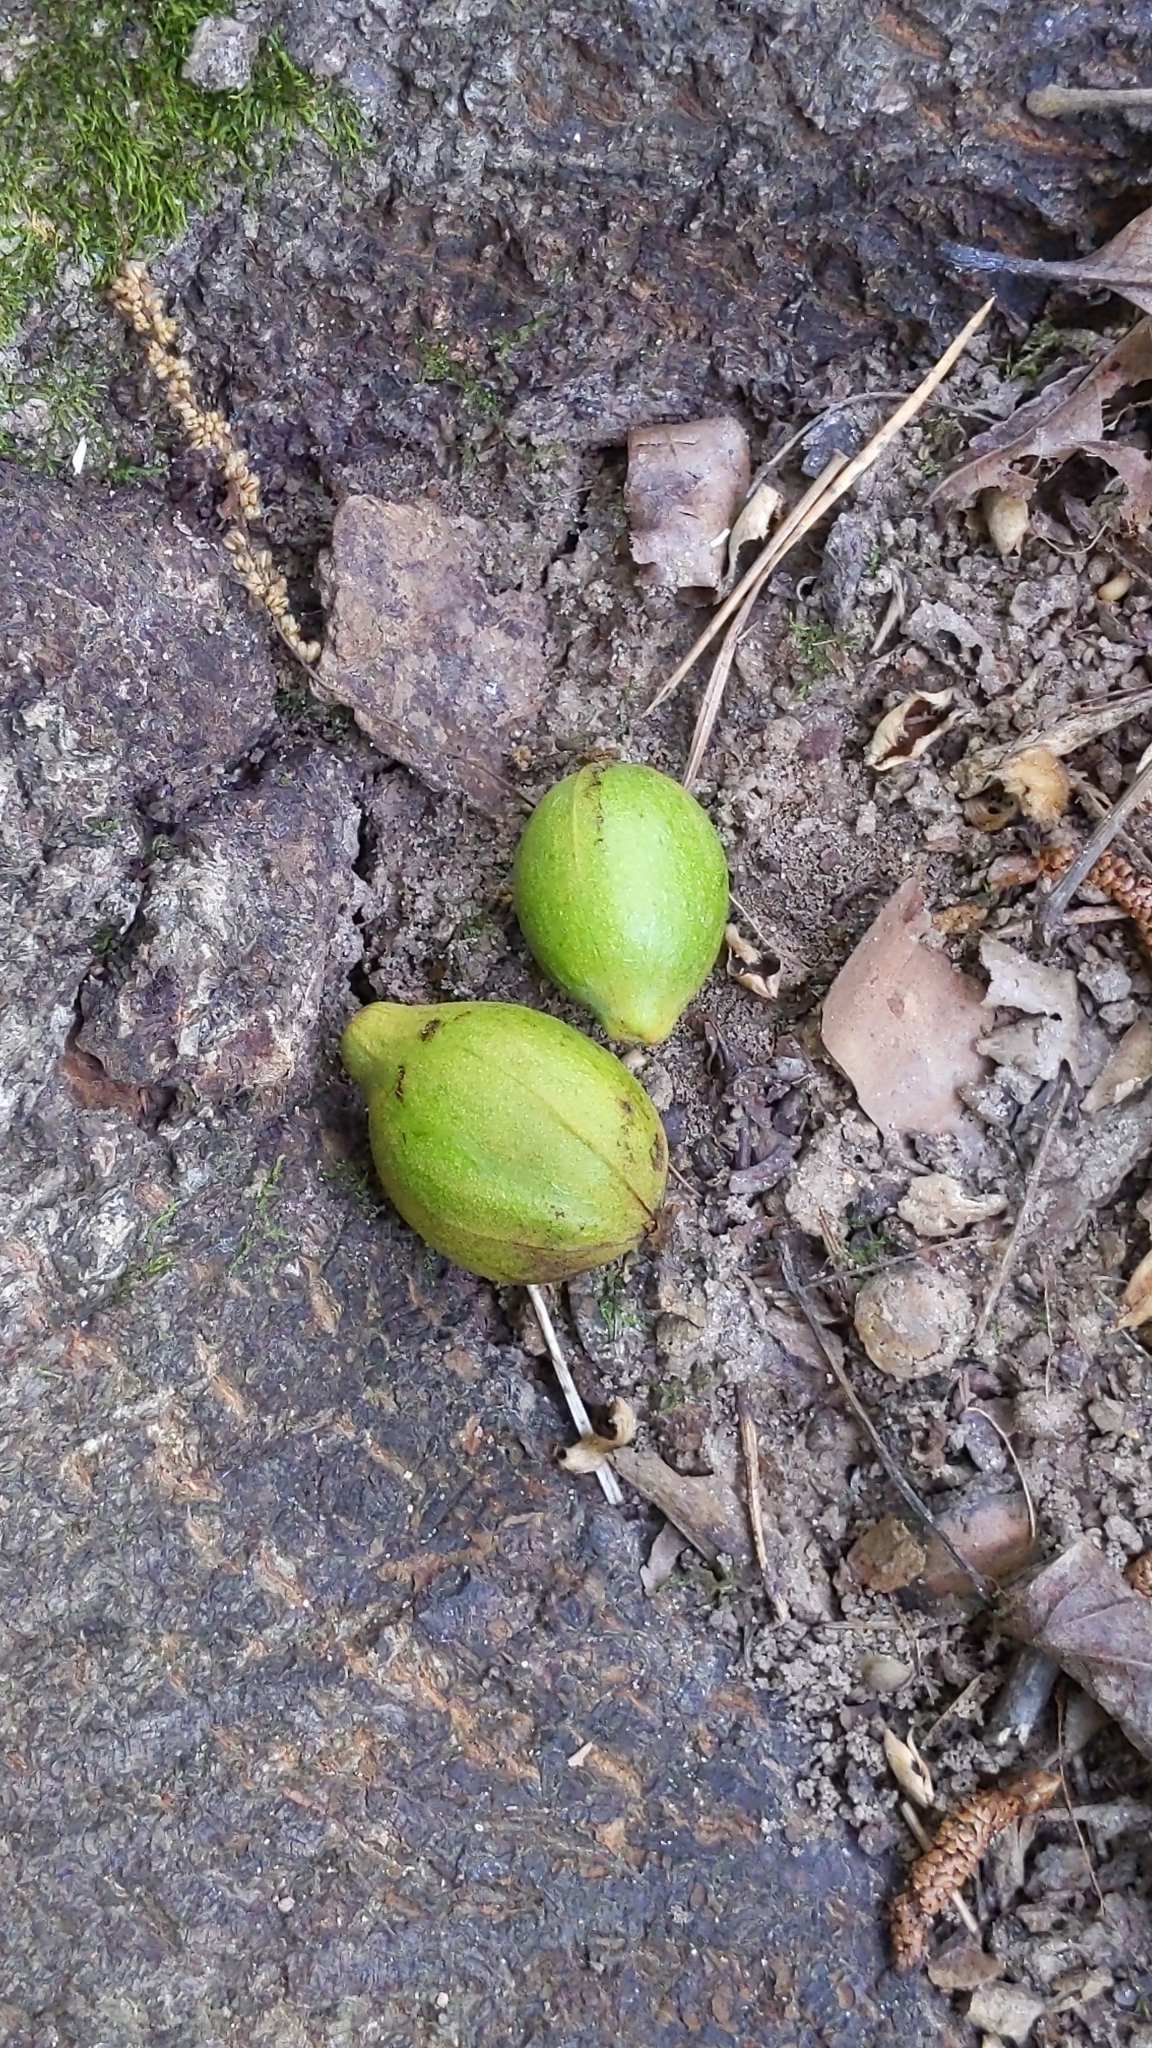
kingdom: Plantae
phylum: Tracheophyta
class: Magnoliopsida
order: Fagales
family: Juglandaceae
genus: Carya
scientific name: Carya glabra
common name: Pignut hickory
